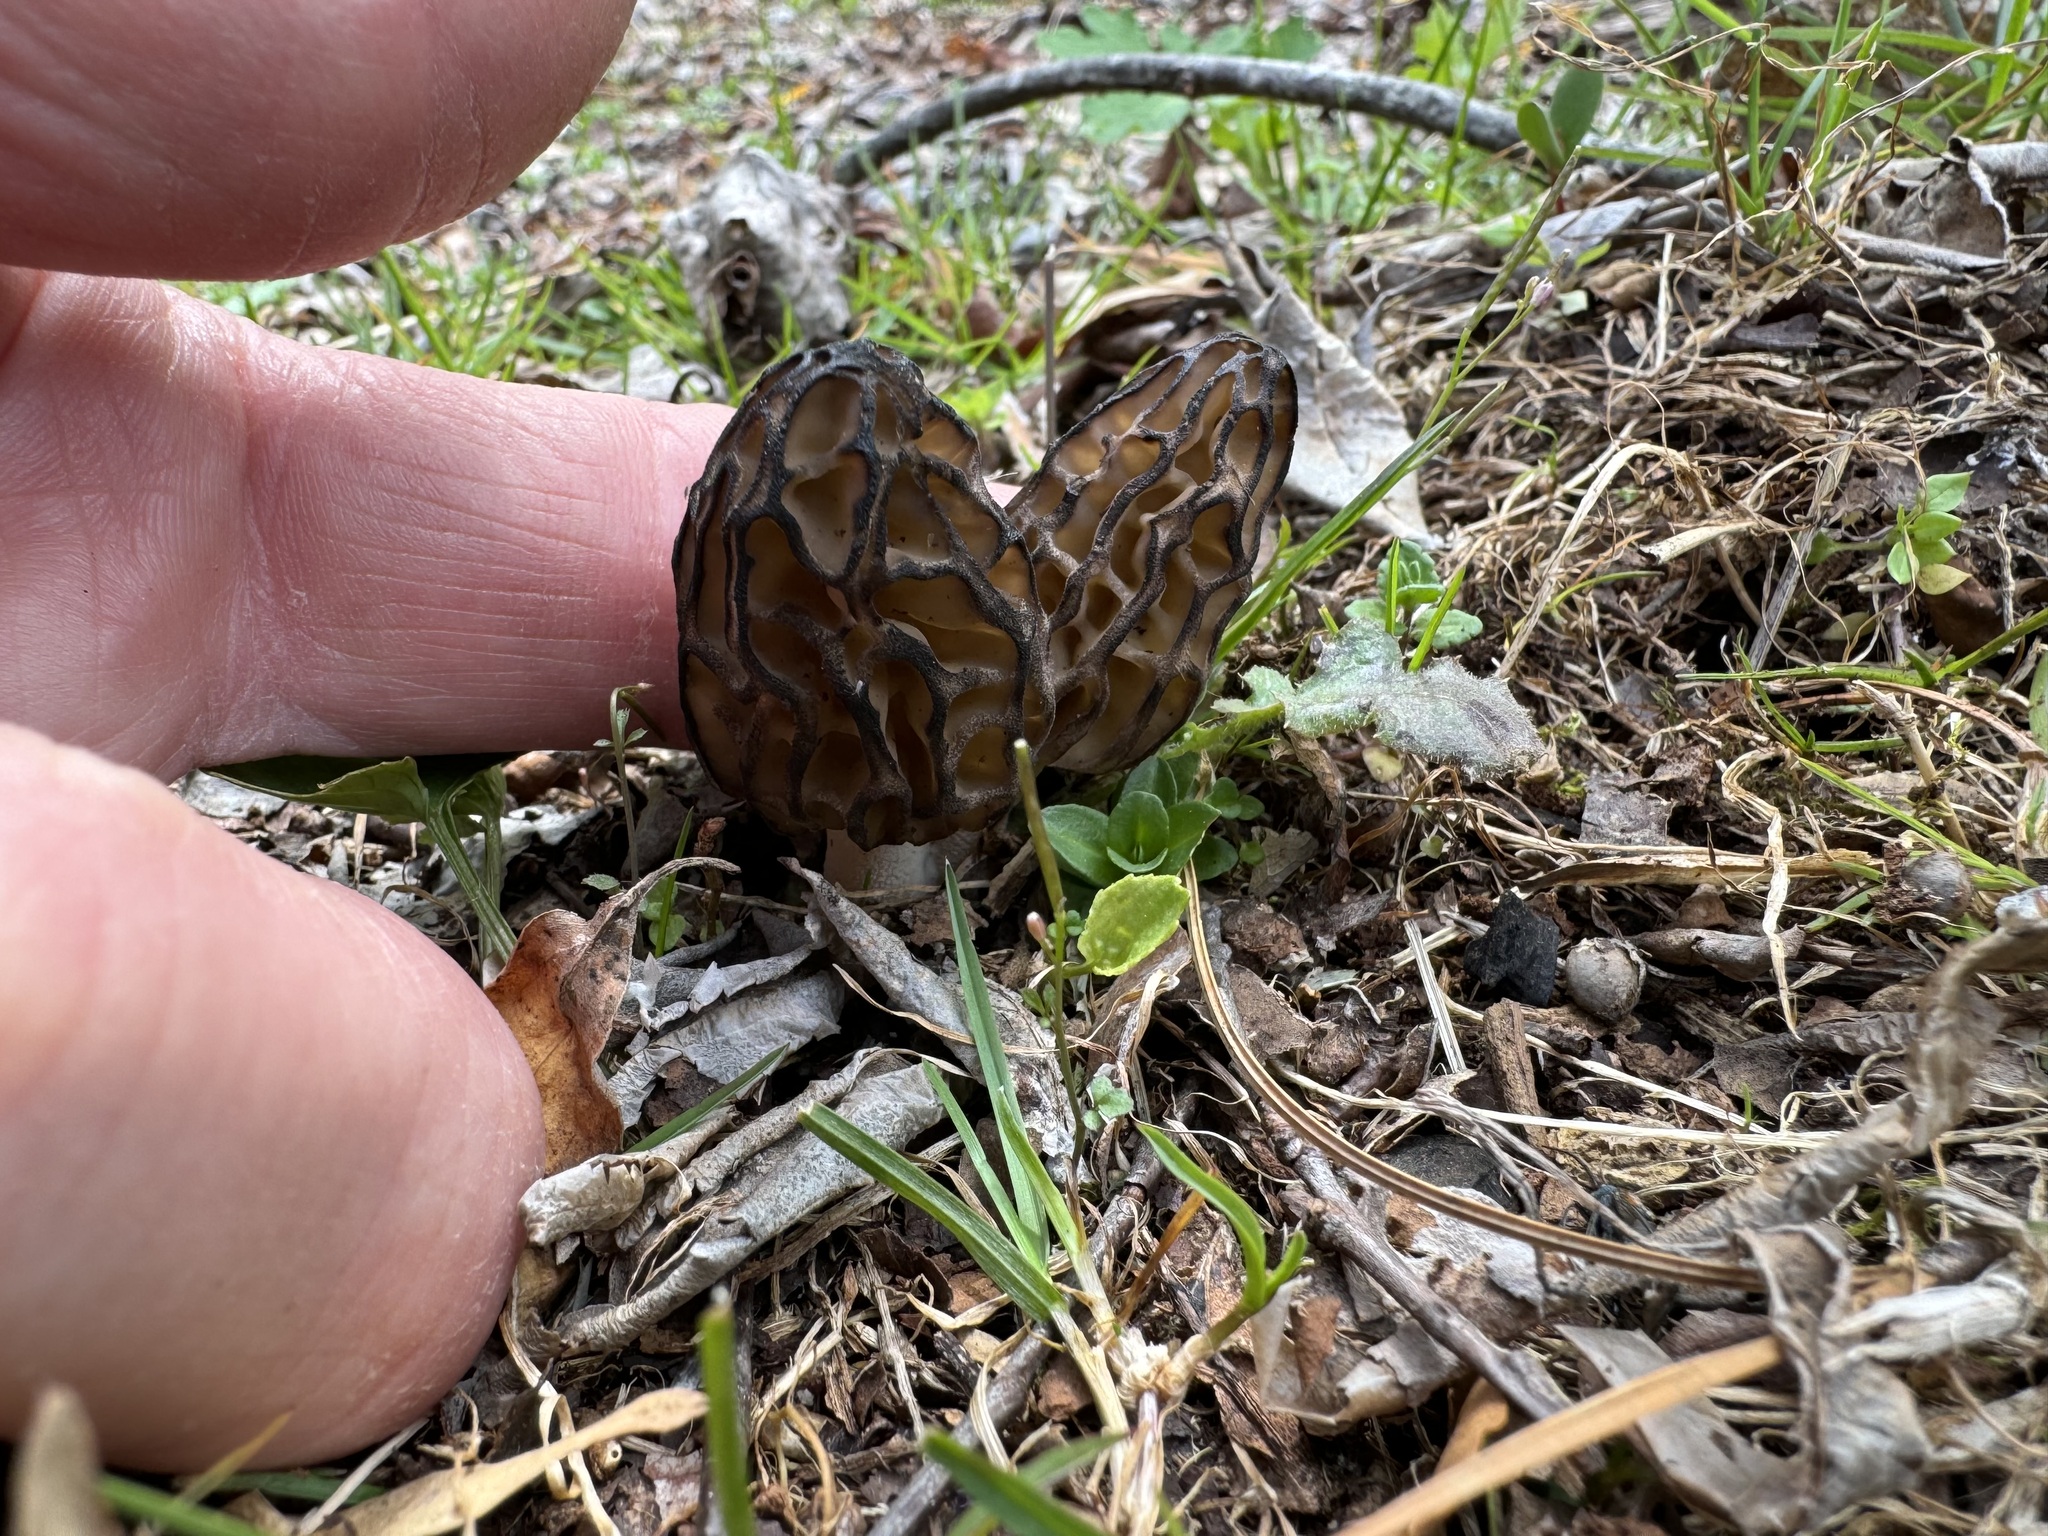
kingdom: Fungi
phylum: Ascomycota
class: Pezizomycetes
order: Pezizales
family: Morchellaceae
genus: Morchella
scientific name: Morchella angusticeps
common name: Black morel
